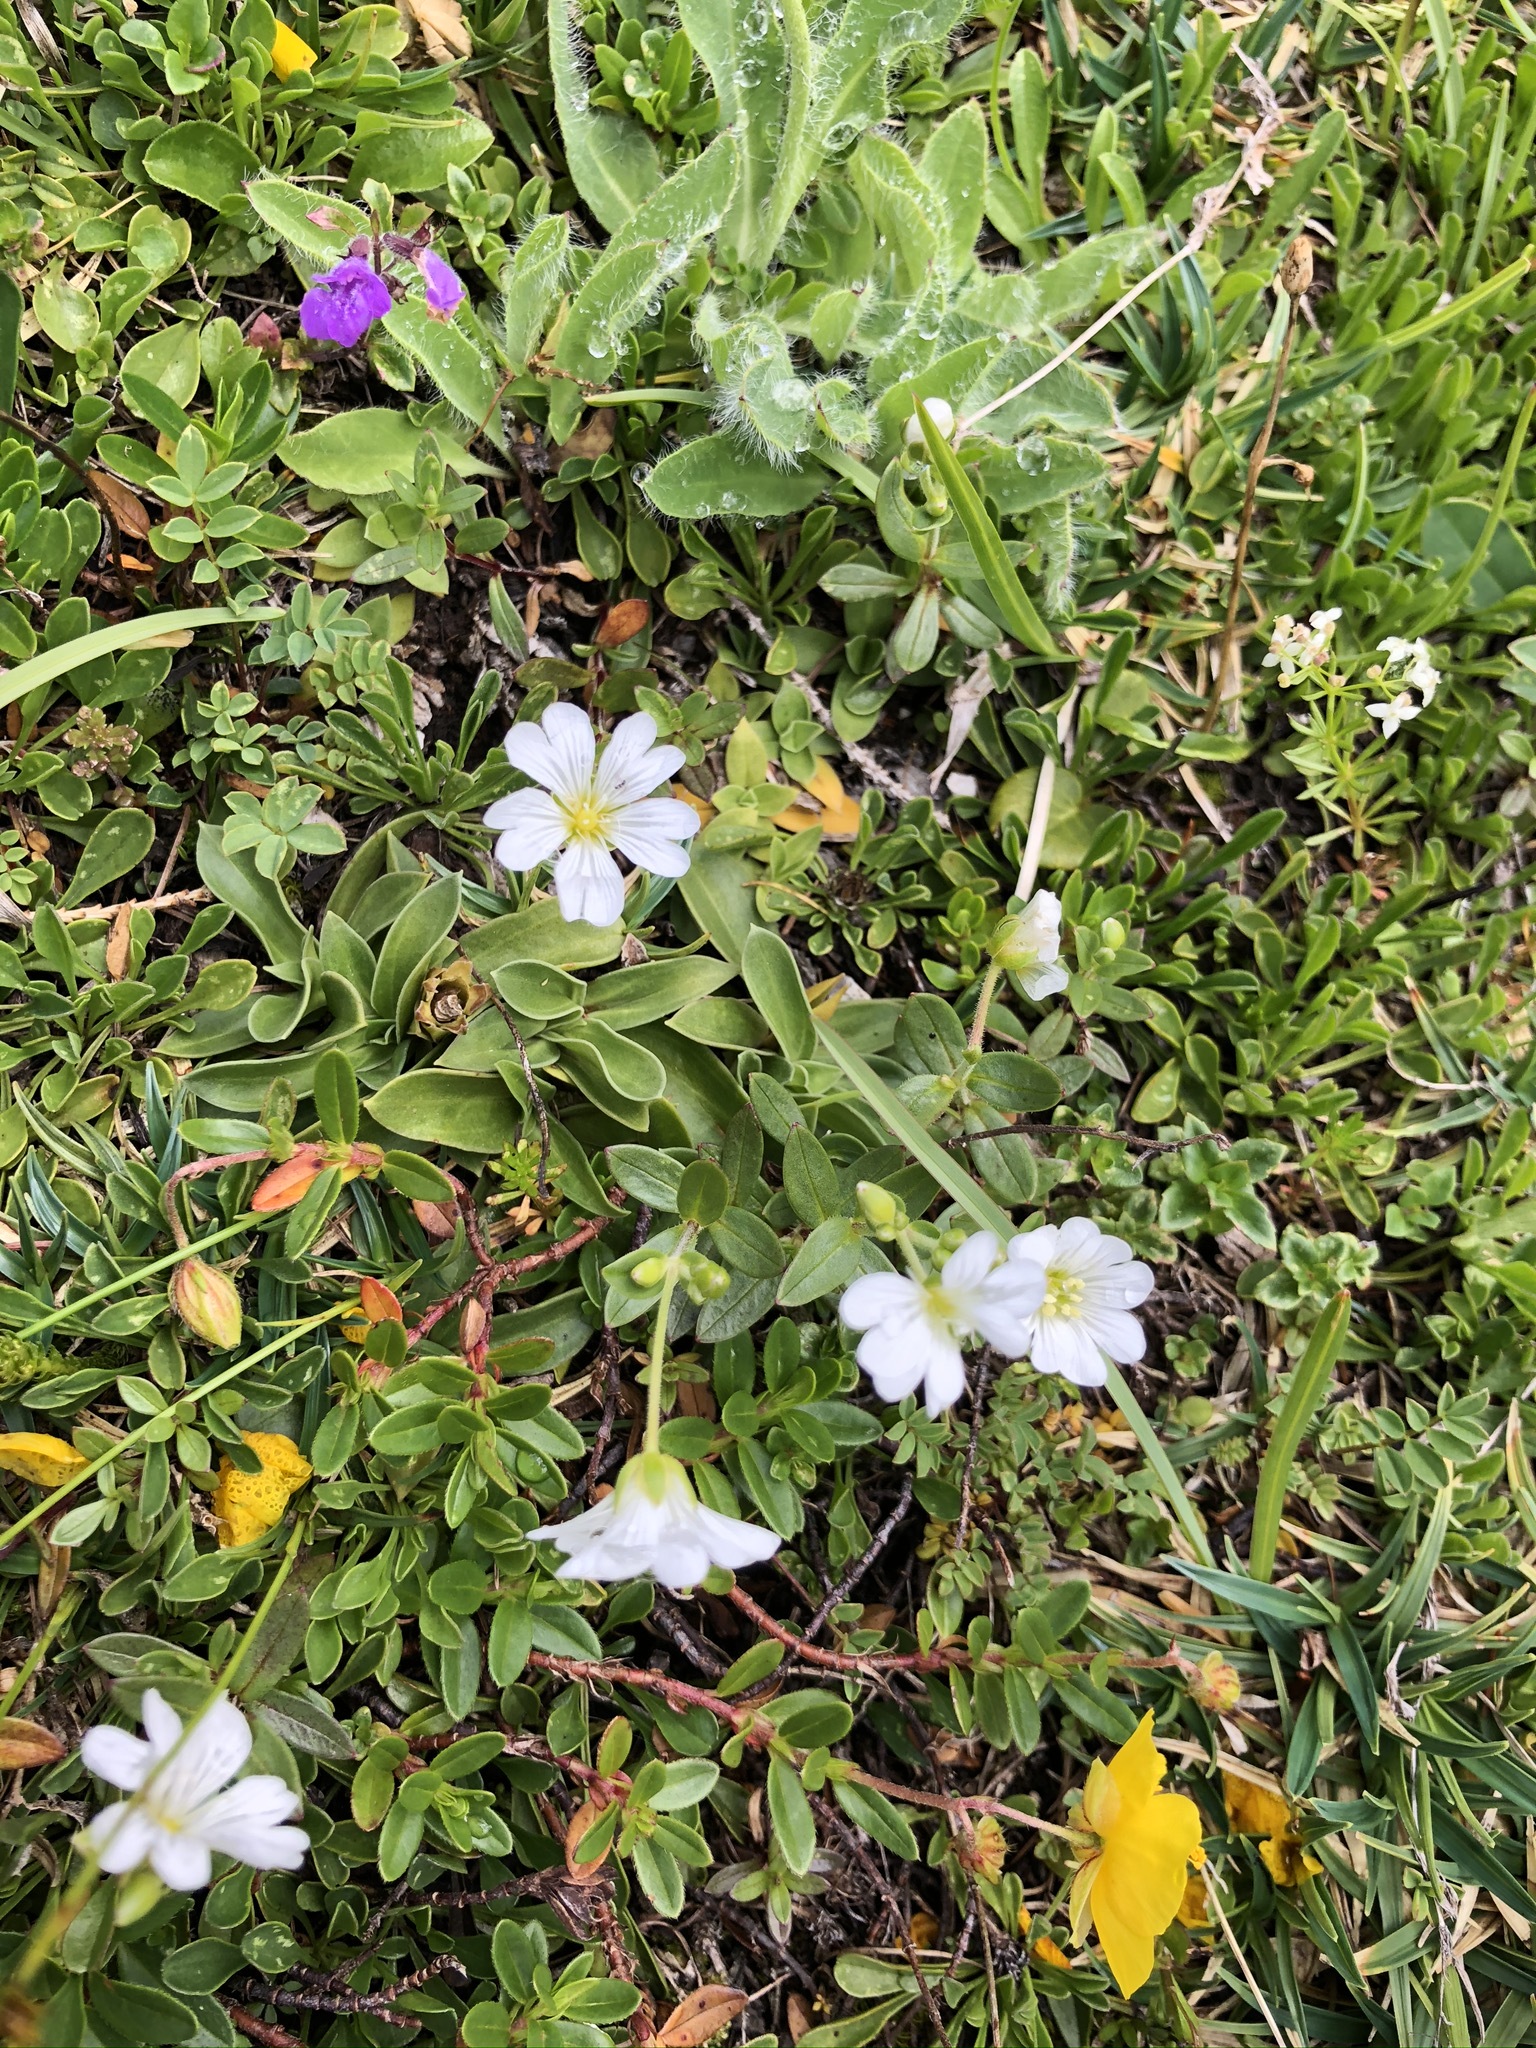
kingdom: Plantae
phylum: Tracheophyta
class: Magnoliopsida
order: Caryophyllales
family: Caryophyllaceae
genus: Cerastium
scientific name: Cerastium latifolium
